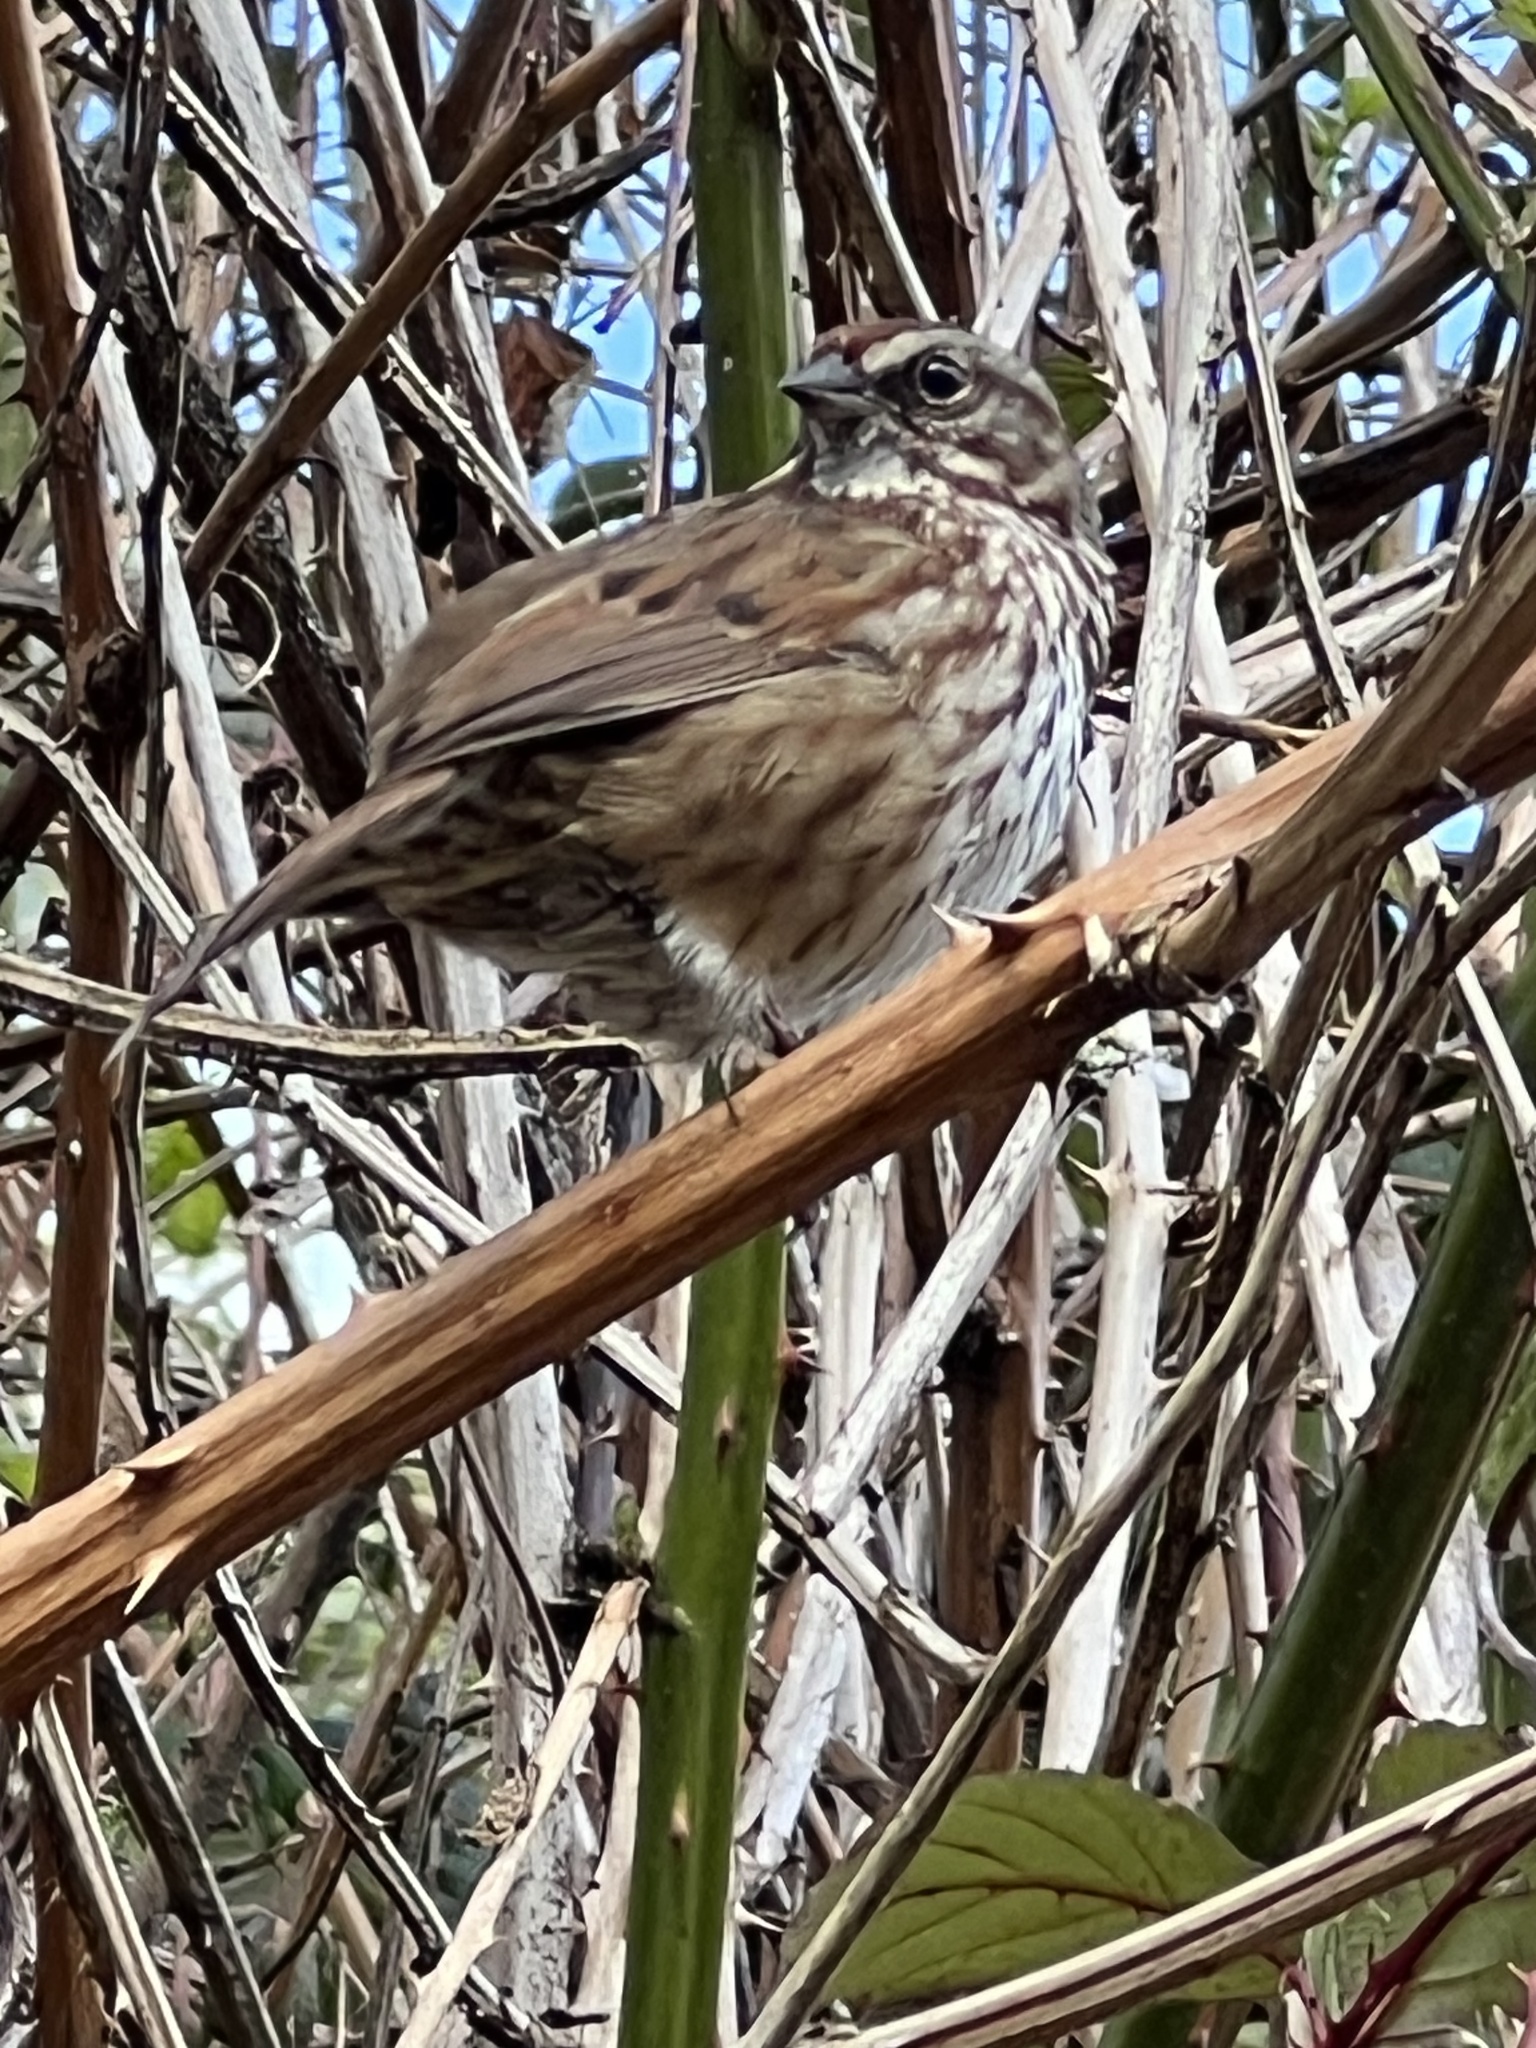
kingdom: Animalia
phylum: Chordata
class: Aves
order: Passeriformes
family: Passerellidae
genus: Melospiza
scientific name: Melospiza melodia
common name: Song sparrow
